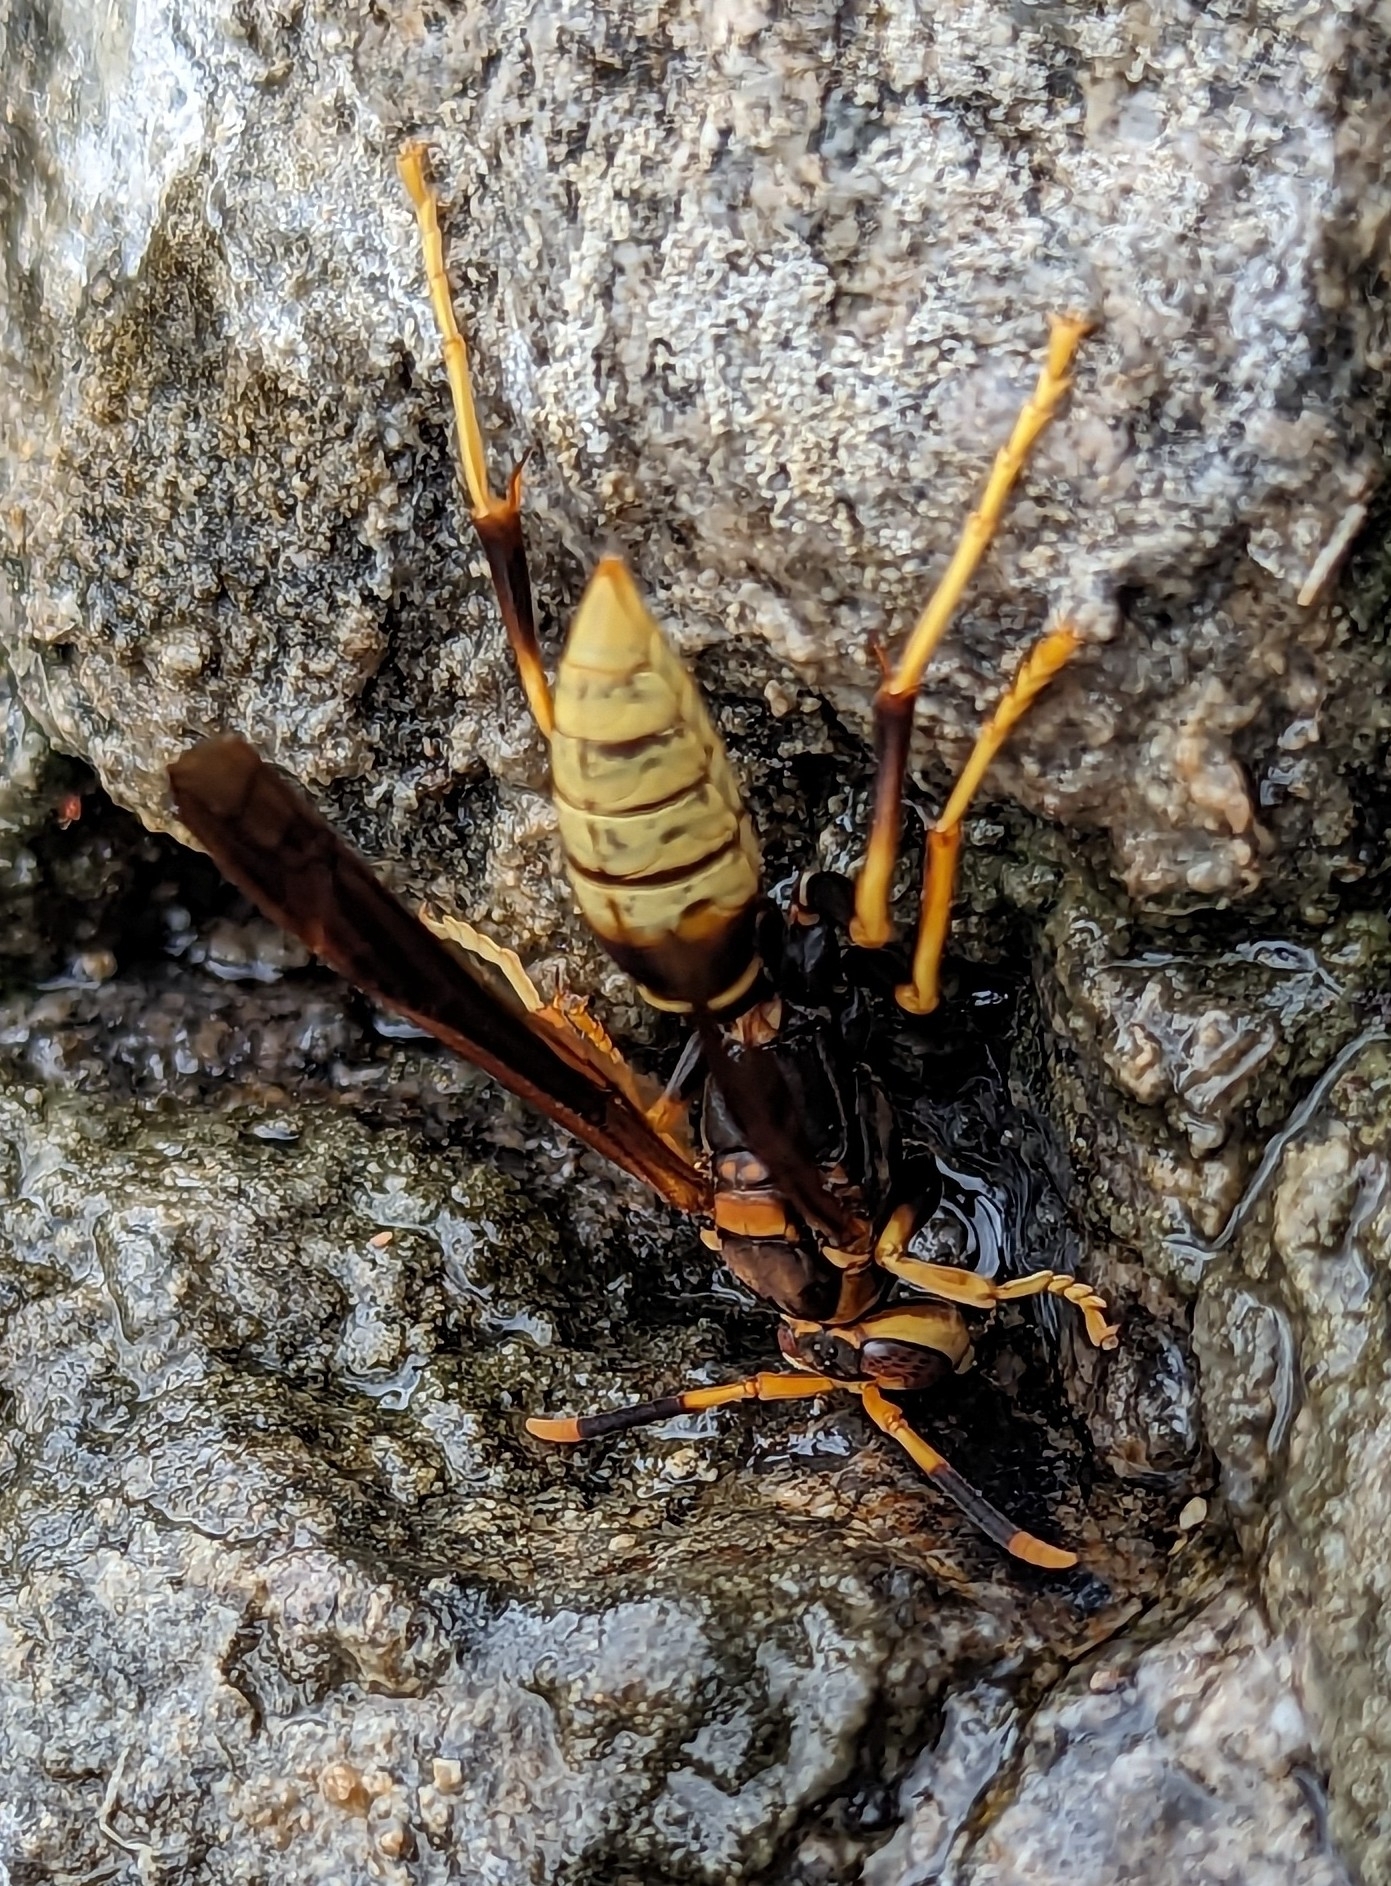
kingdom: Animalia
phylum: Arthropoda
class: Insecta
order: Hymenoptera
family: Eumenidae
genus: Polistes
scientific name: Polistes comanchus
